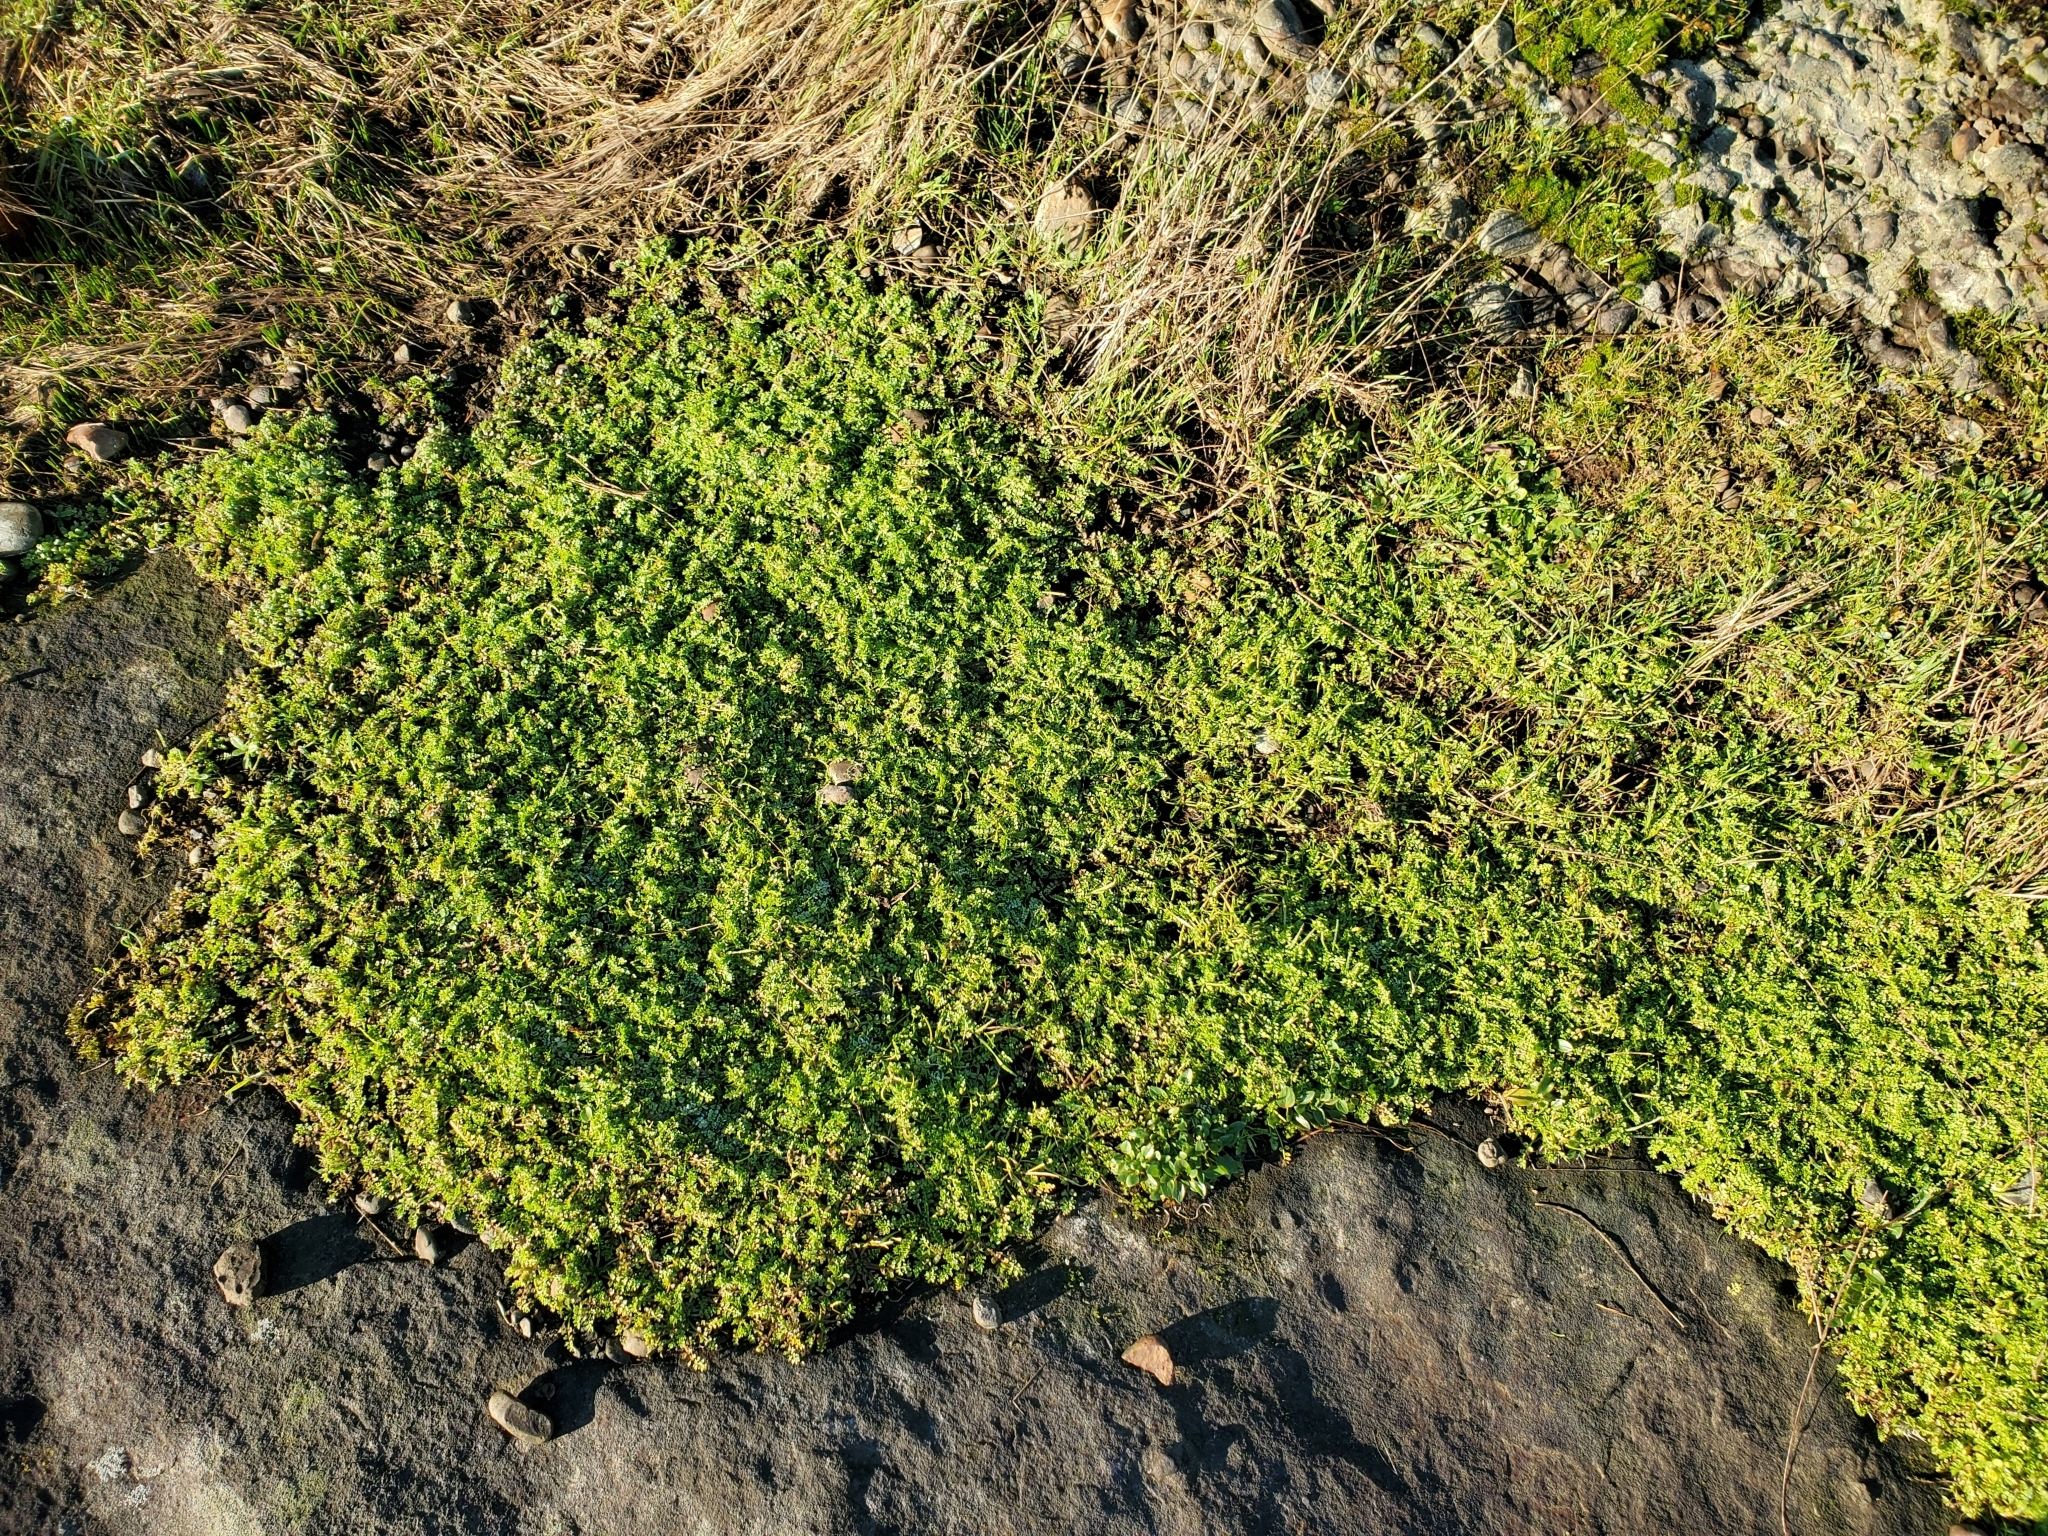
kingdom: Plantae
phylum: Tracheophyta
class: Magnoliopsida
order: Brassicales
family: Limnanthaceae
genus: Limnanthes
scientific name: Limnanthes macounii
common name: Macoun's meadowfoam
